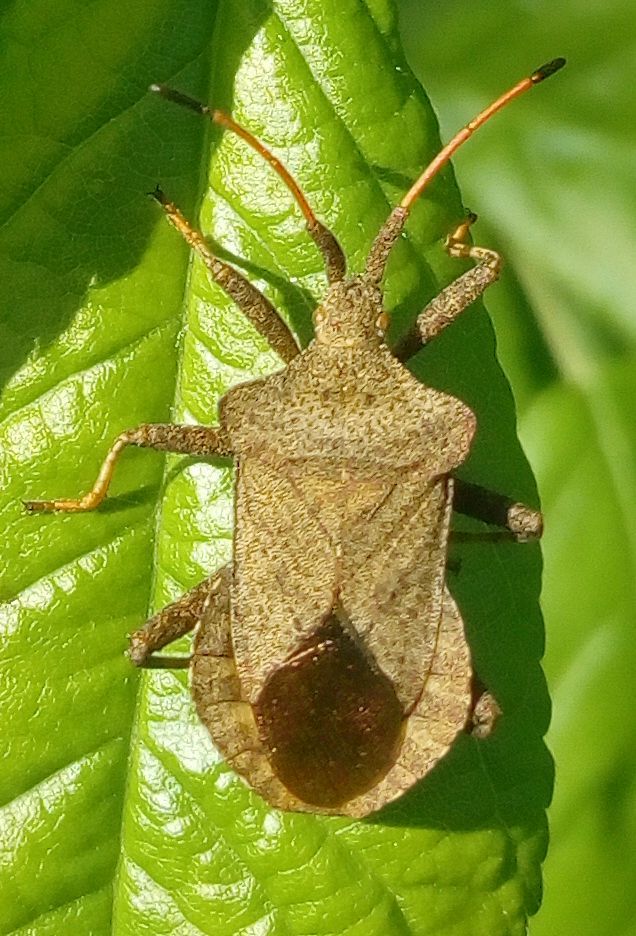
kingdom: Animalia
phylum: Arthropoda
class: Insecta
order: Hemiptera
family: Coreidae
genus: Coreus
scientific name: Coreus marginatus
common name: Dock bug
